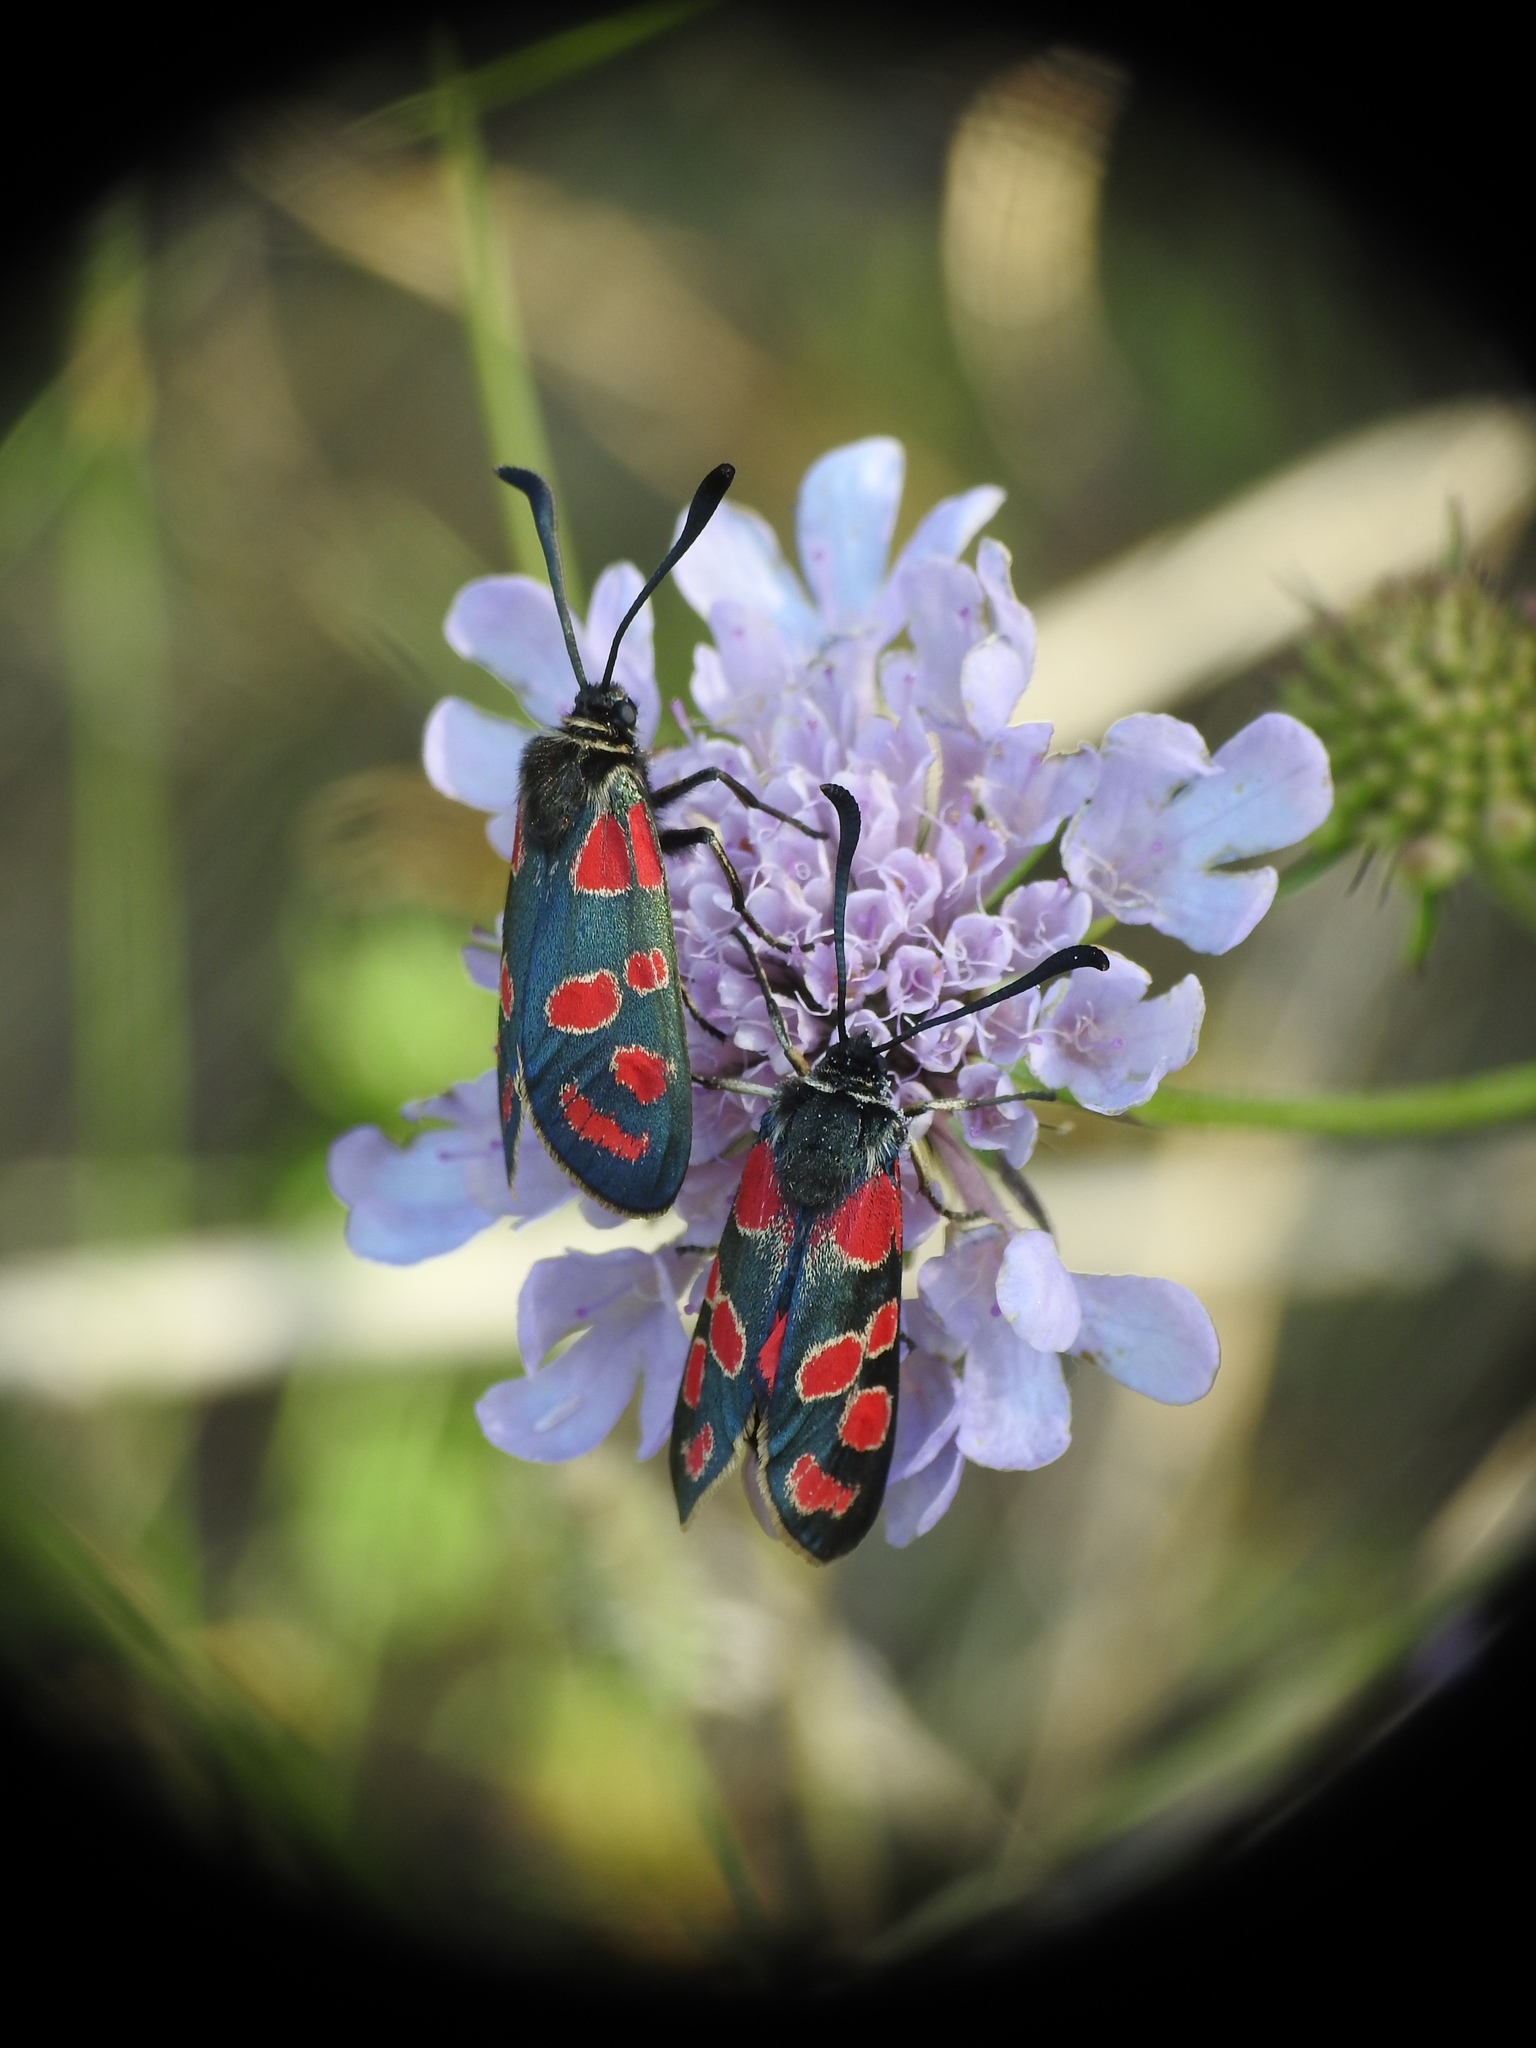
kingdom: Animalia
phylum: Arthropoda
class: Insecta
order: Lepidoptera
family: Zygaenidae
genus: Zygaena
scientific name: Zygaena carniolica
